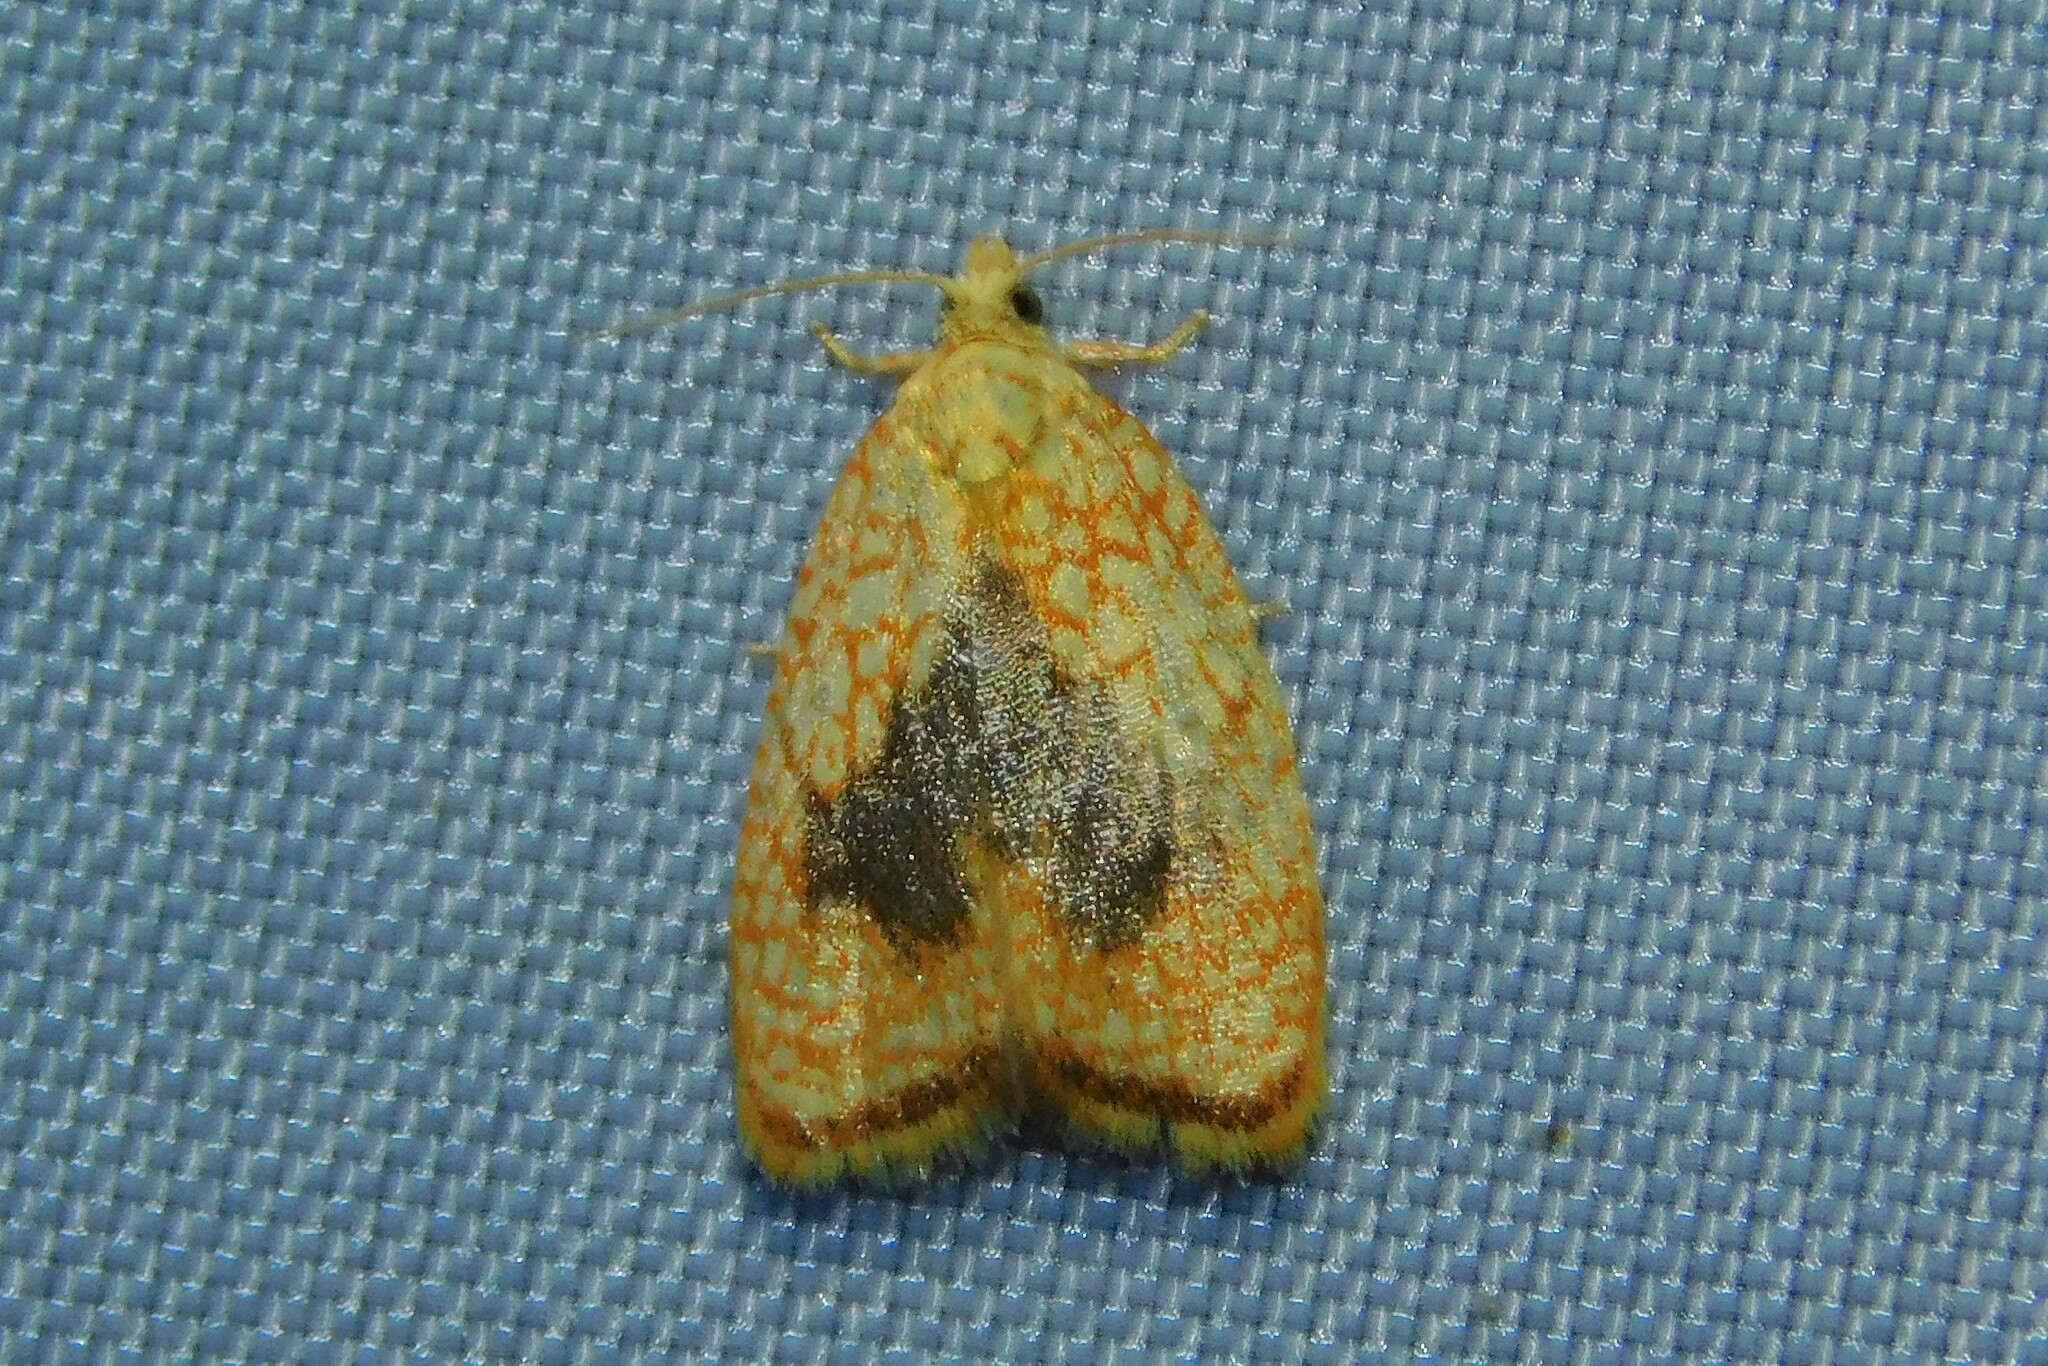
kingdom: Animalia
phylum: Arthropoda
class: Insecta
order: Lepidoptera
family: Tortricidae
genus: Acleris
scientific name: Acleris forsskaleana
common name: Maple button
